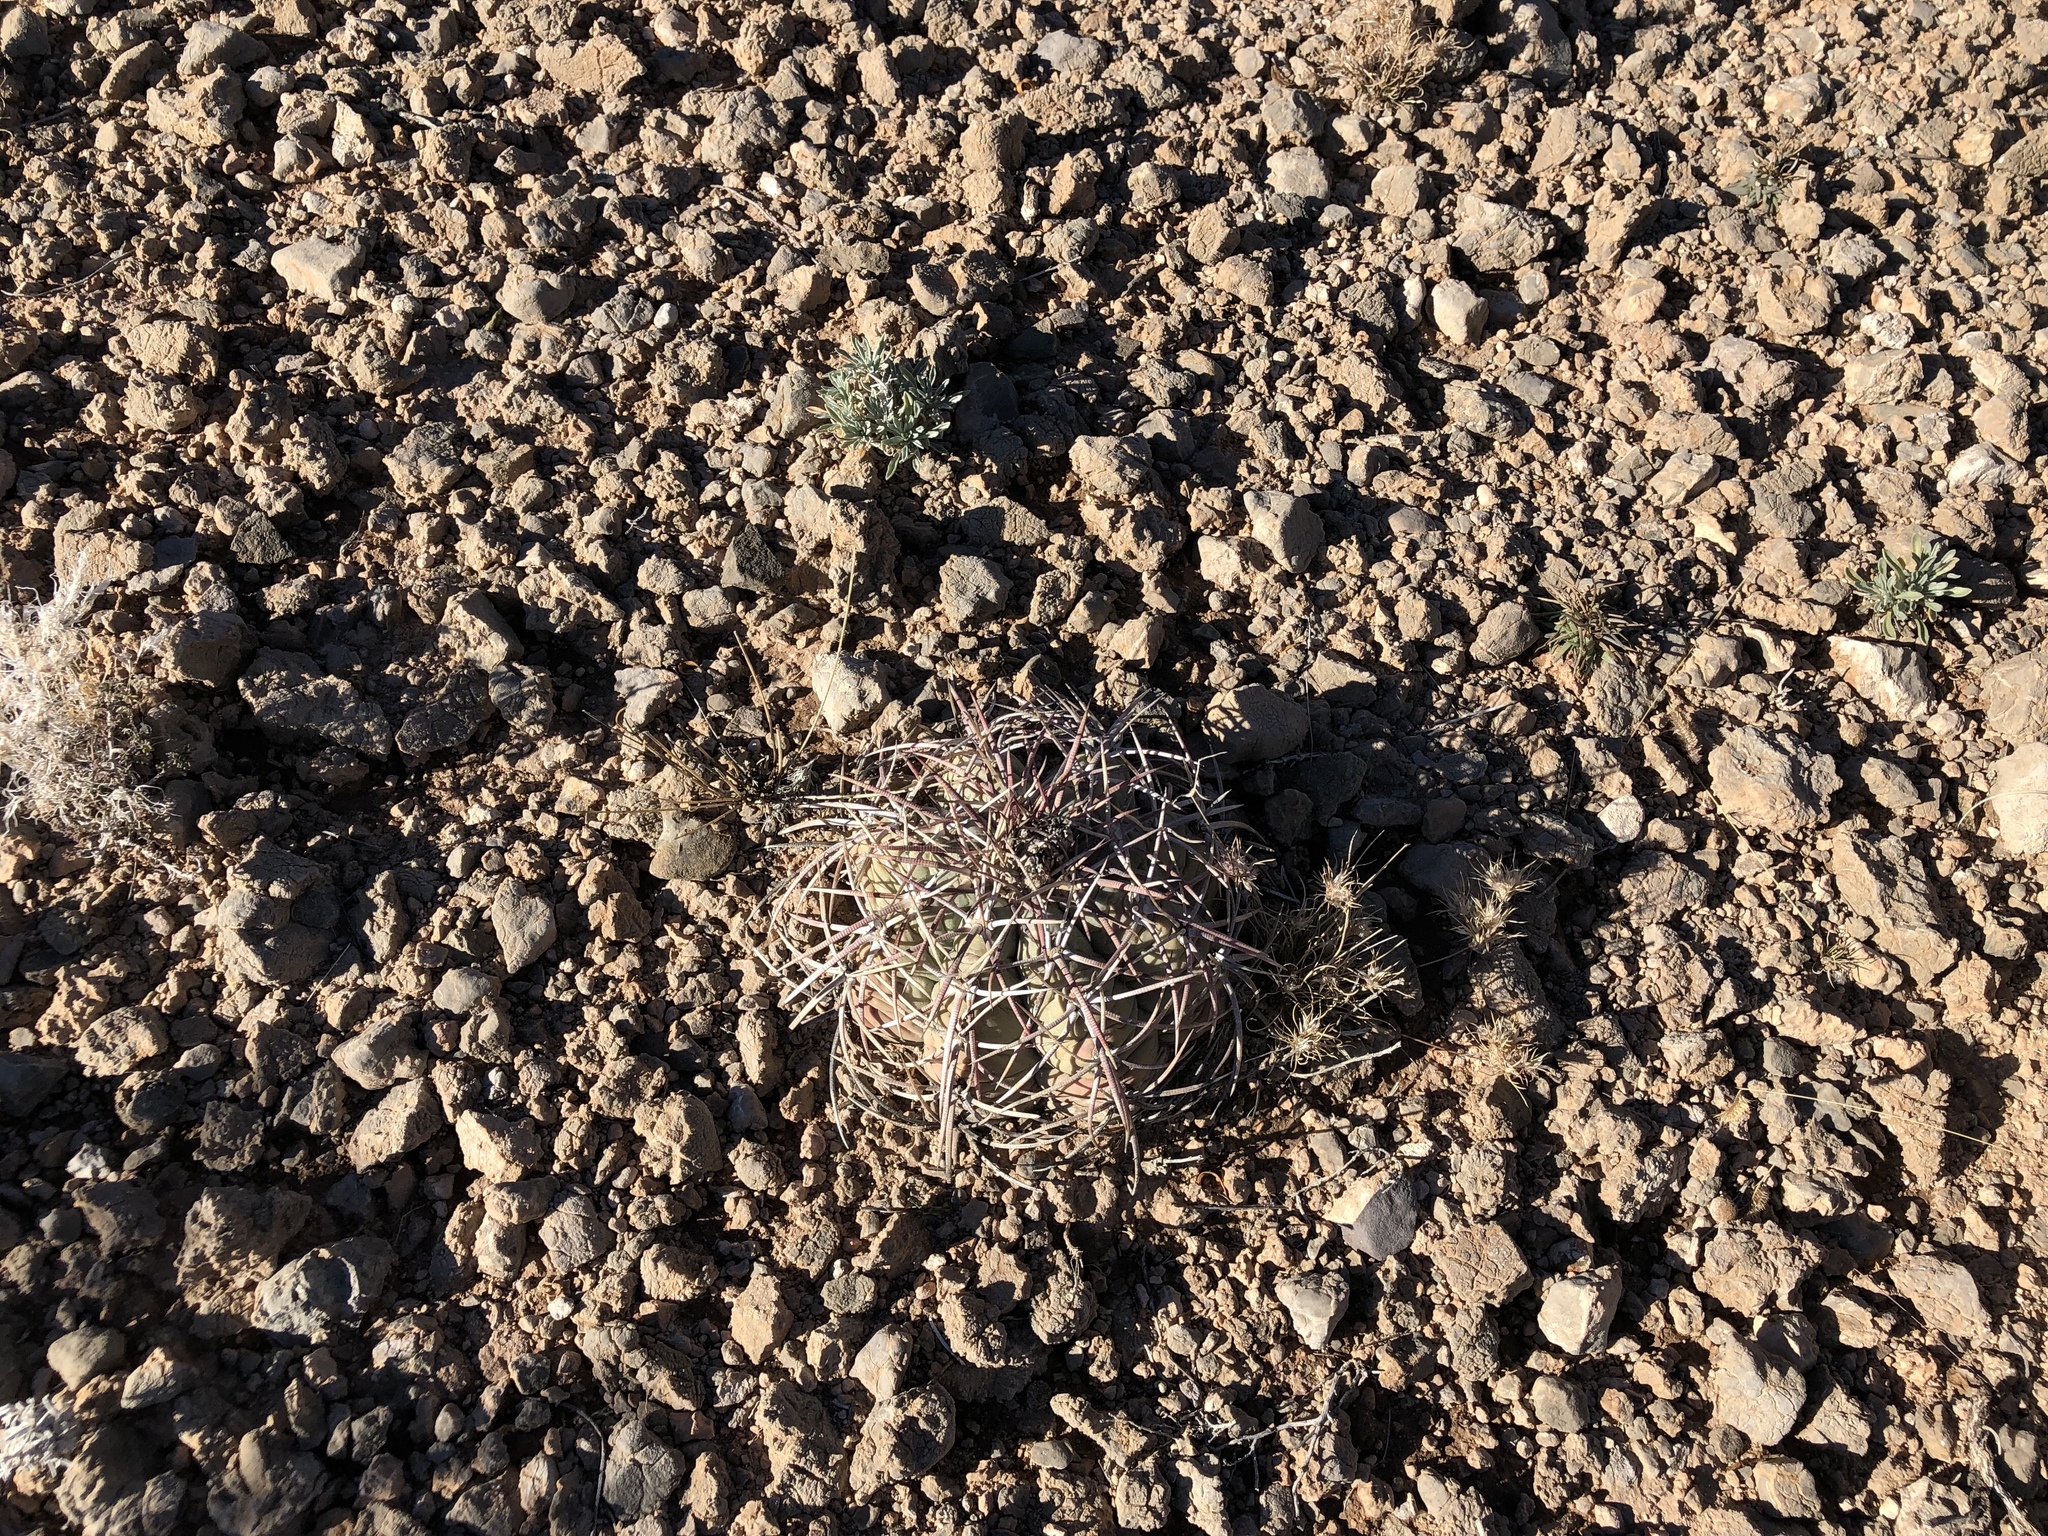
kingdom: Plantae
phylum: Tracheophyta
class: Magnoliopsida
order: Caryophyllales
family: Cactaceae
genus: Echinocactus
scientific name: Echinocactus horizonthalonius
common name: Devilshead
